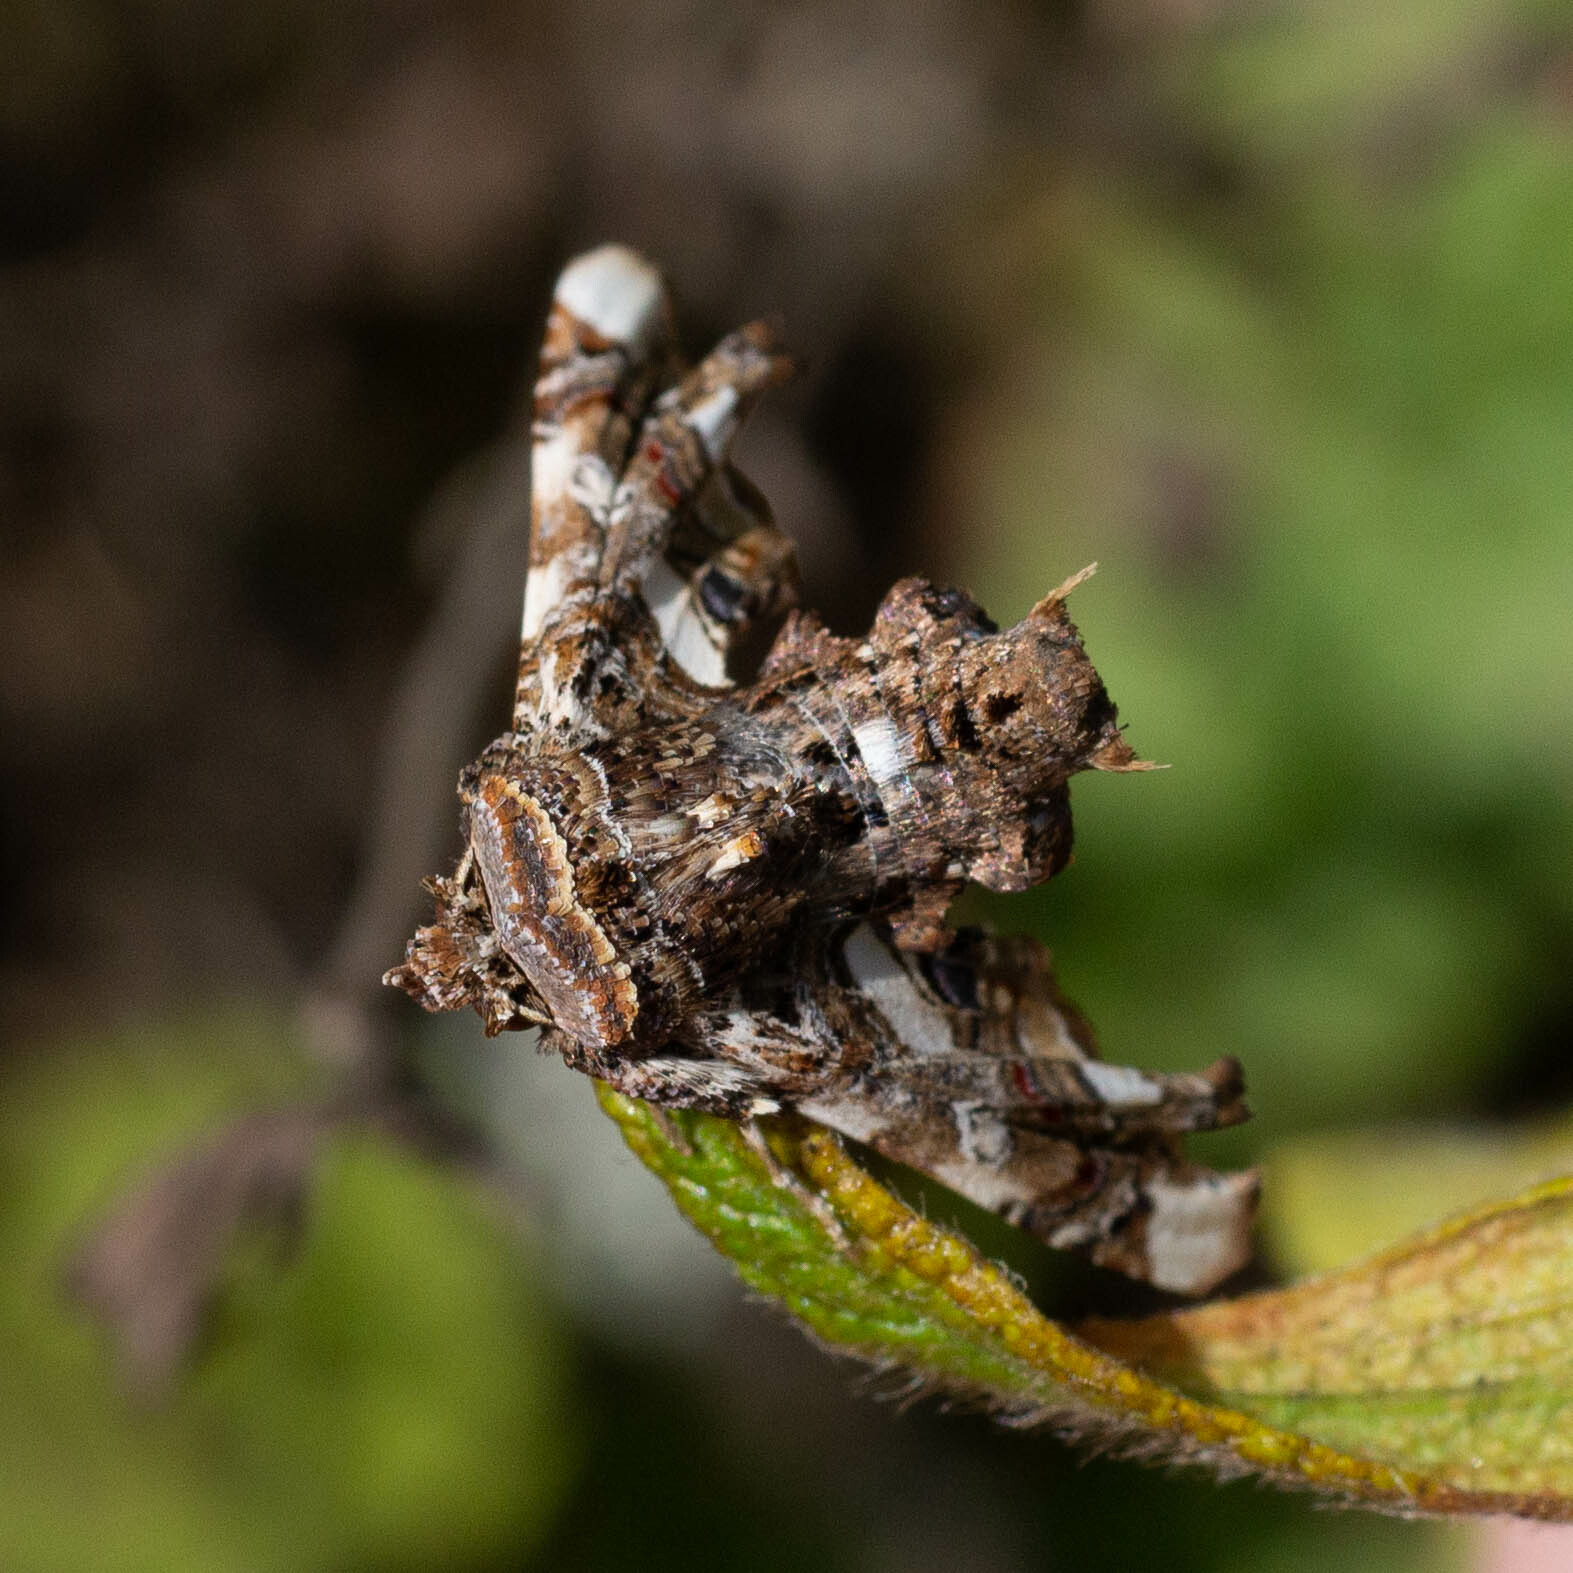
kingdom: Animalia
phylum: Arthropoda
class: Insecta
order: Lepidoptera
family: Euteliidae
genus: Eutelia
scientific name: Eutelia adulatrix
